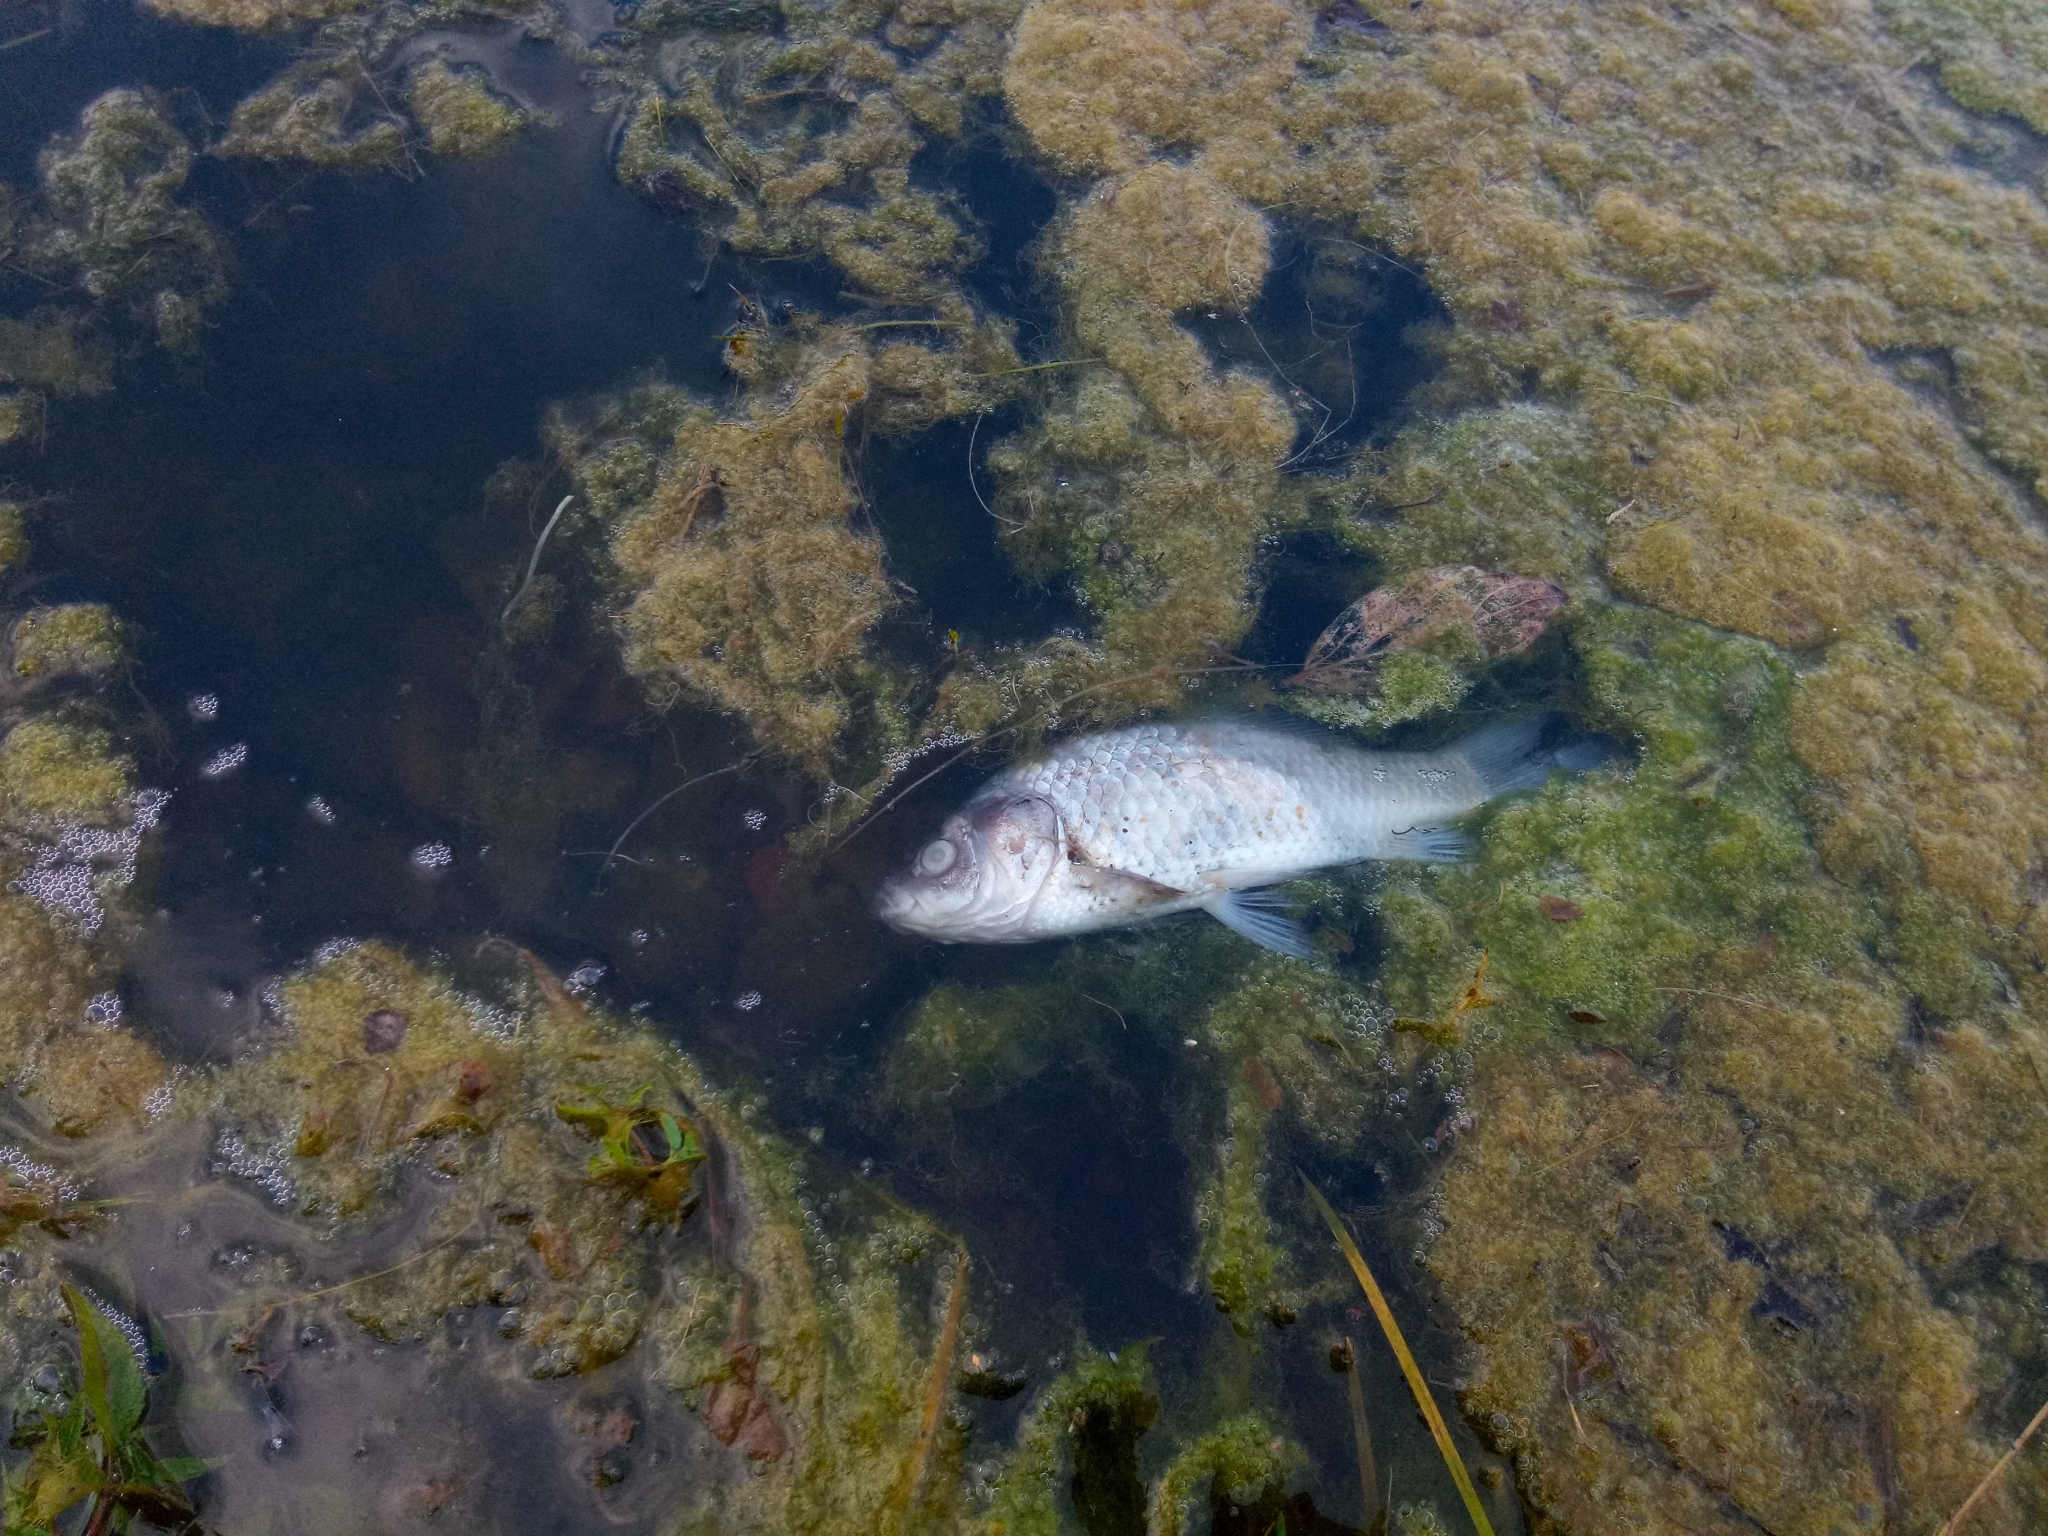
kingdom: Animalia
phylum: Chordata
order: Cypriniformes
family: Cyprinidae
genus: Carassius
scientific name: Carassius gibelio
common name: Prussian carp
